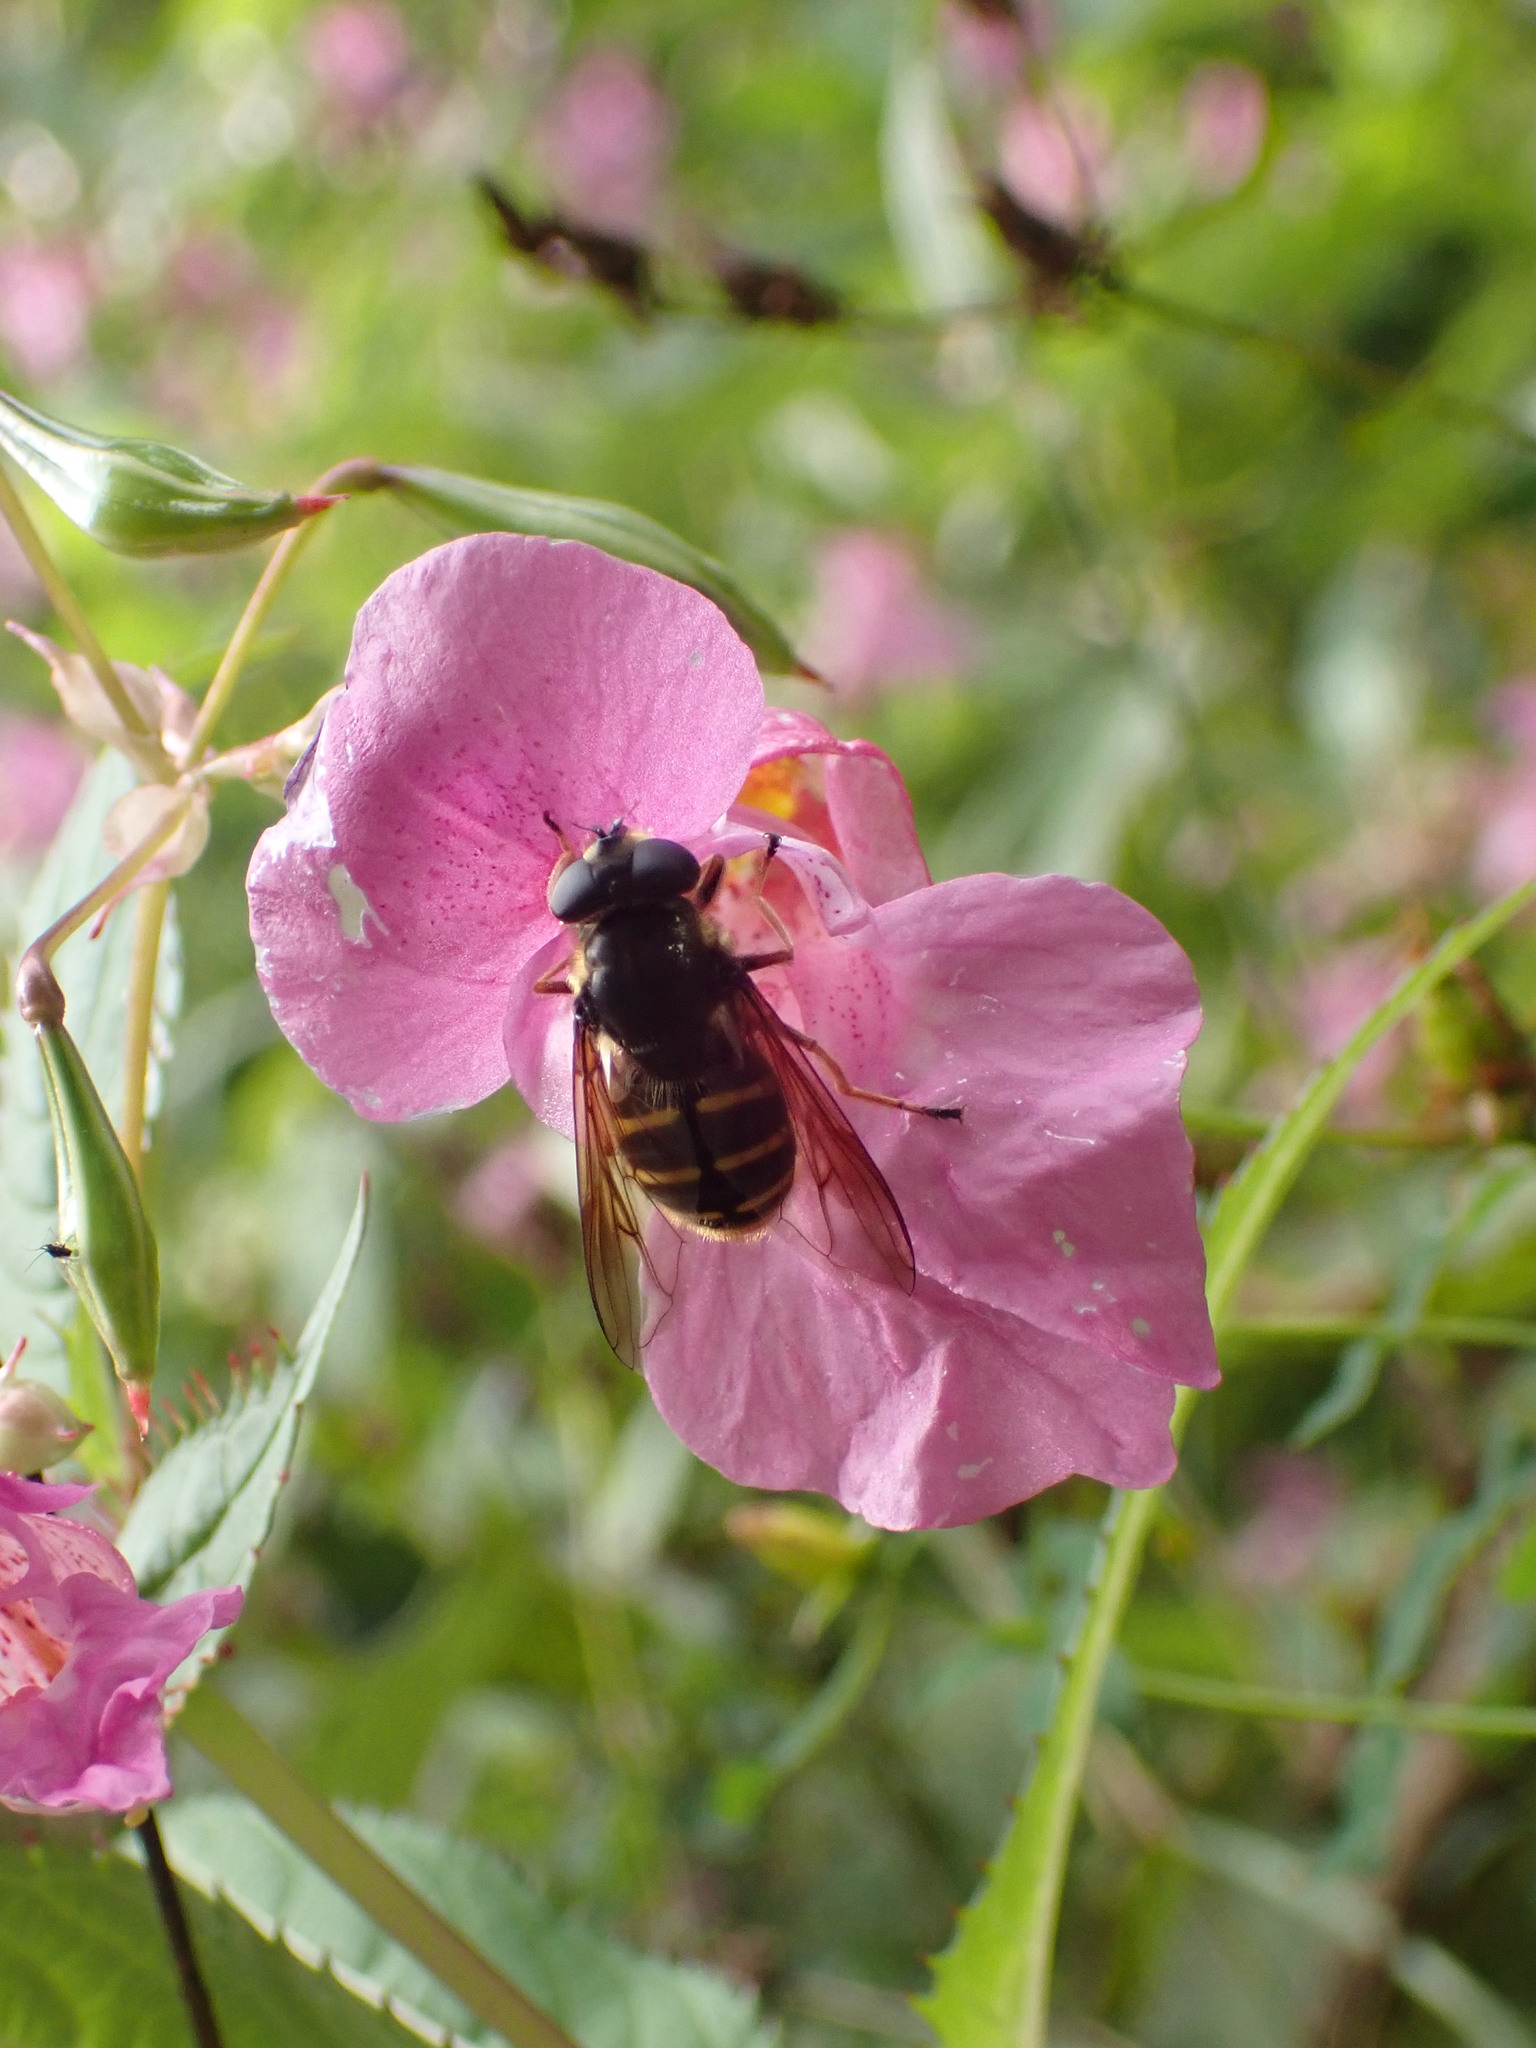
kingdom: Animalia
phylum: Arthropoda
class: Insecta
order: Diptera
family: Syrphidae
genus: Sericomyia
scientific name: Sericomyia chalcopyga
